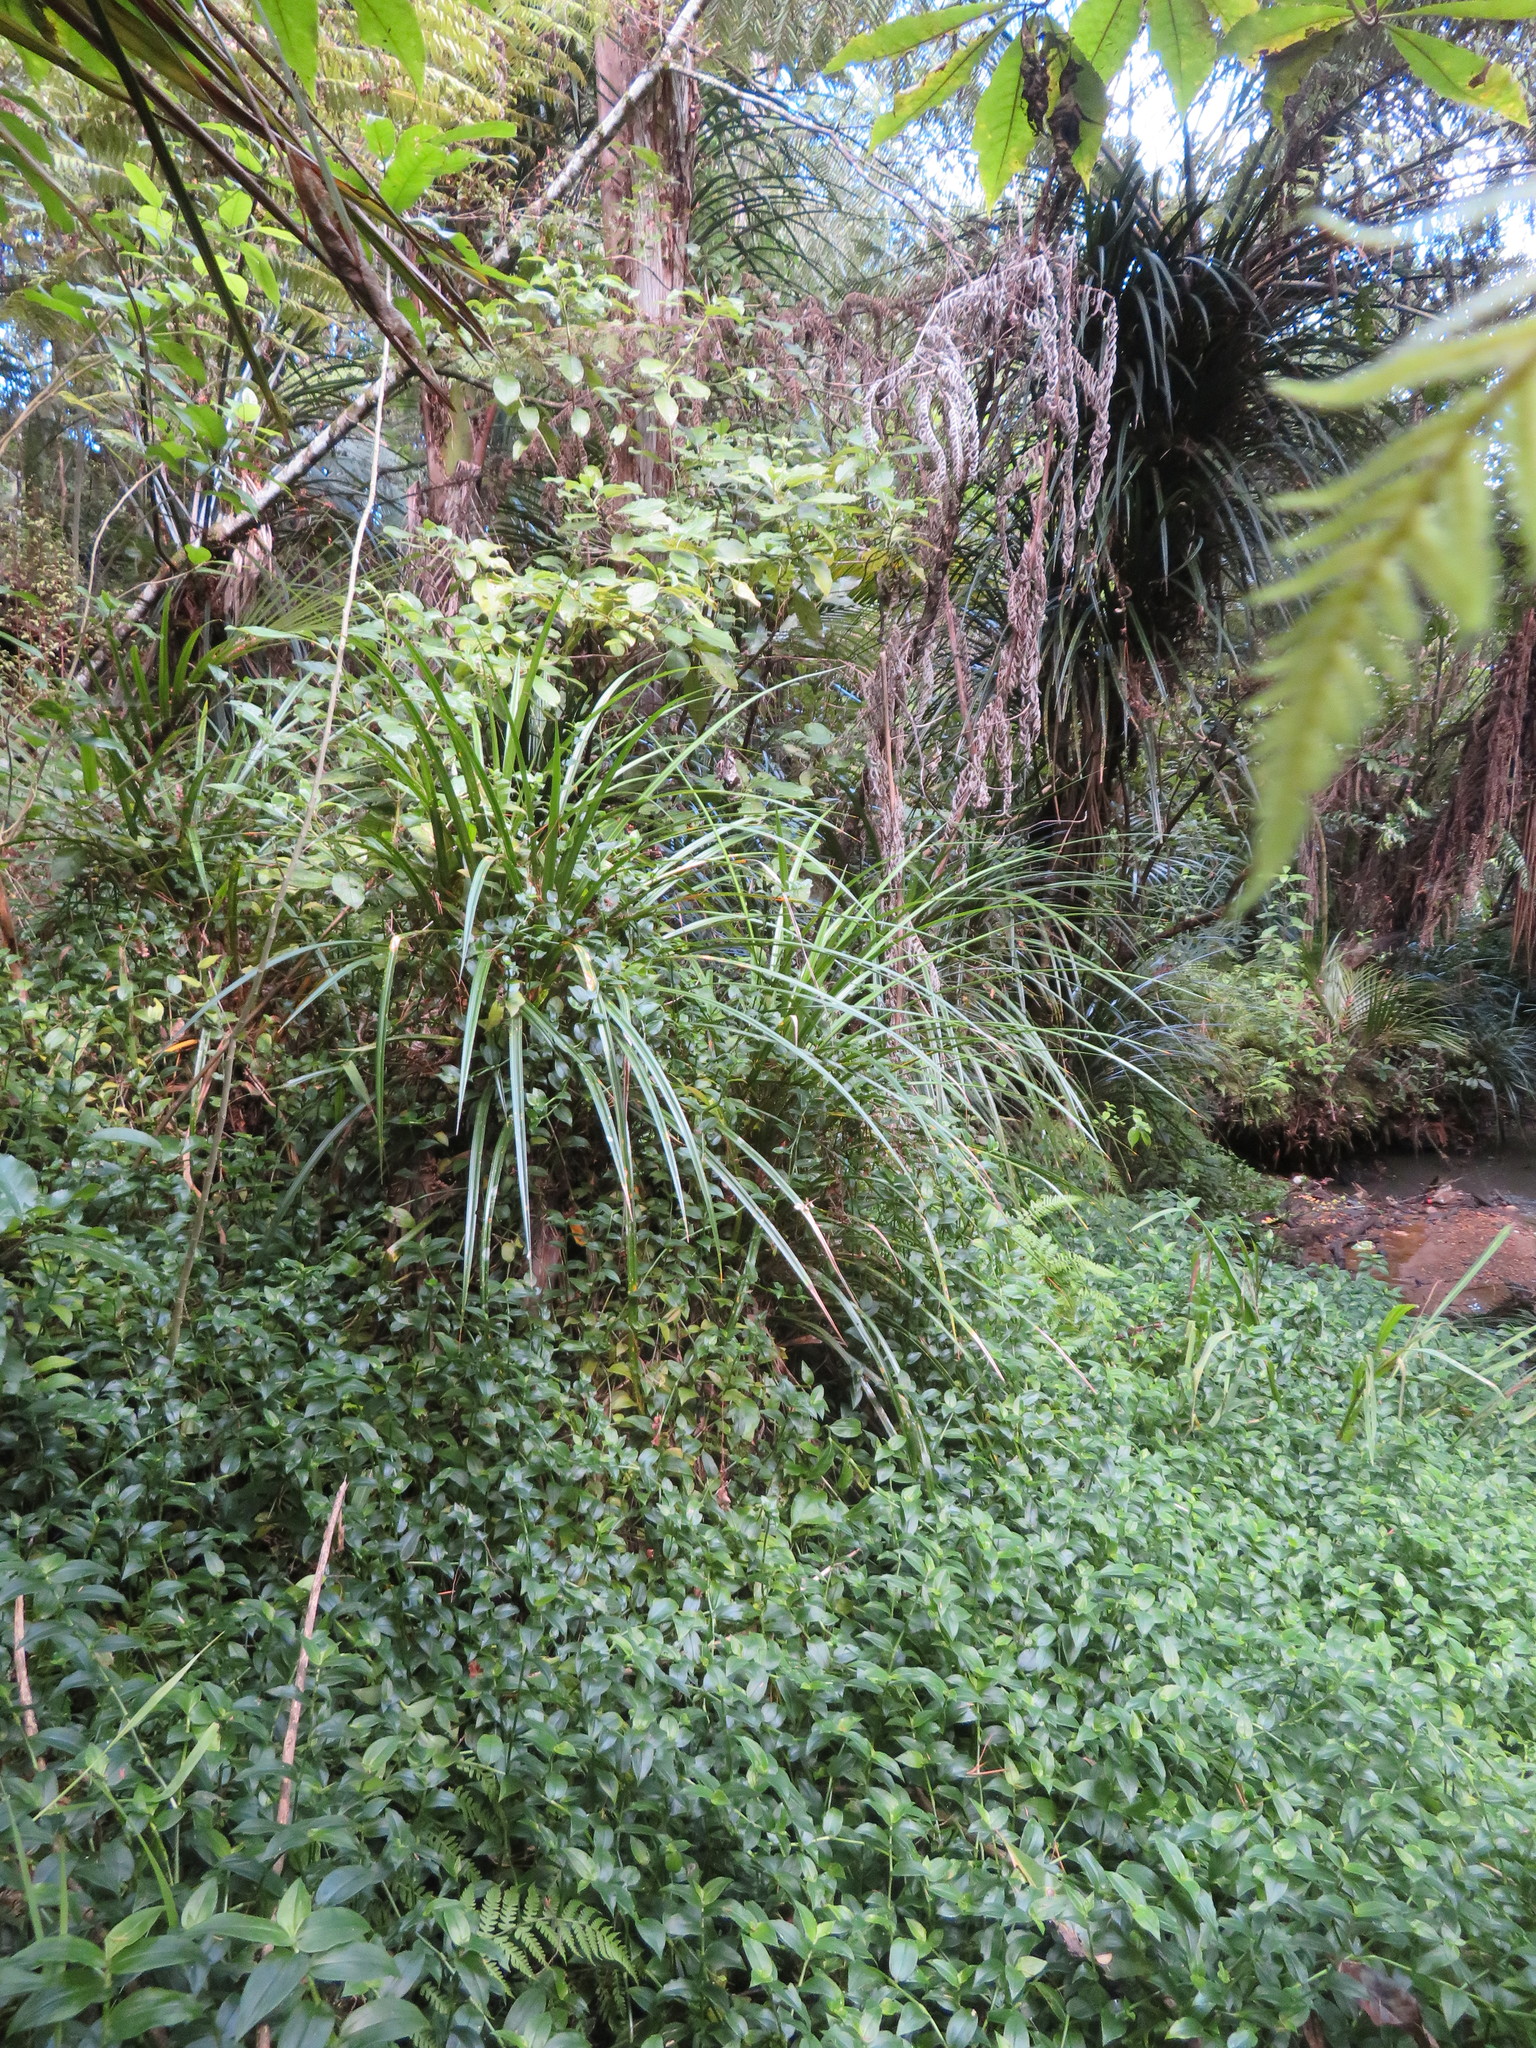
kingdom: Plantae
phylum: Tracheophyta
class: Liliopsida
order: Commelinales
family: Commelinaceae
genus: Tradescantia
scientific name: Tradescantia fluminensis
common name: Wandering-jew
